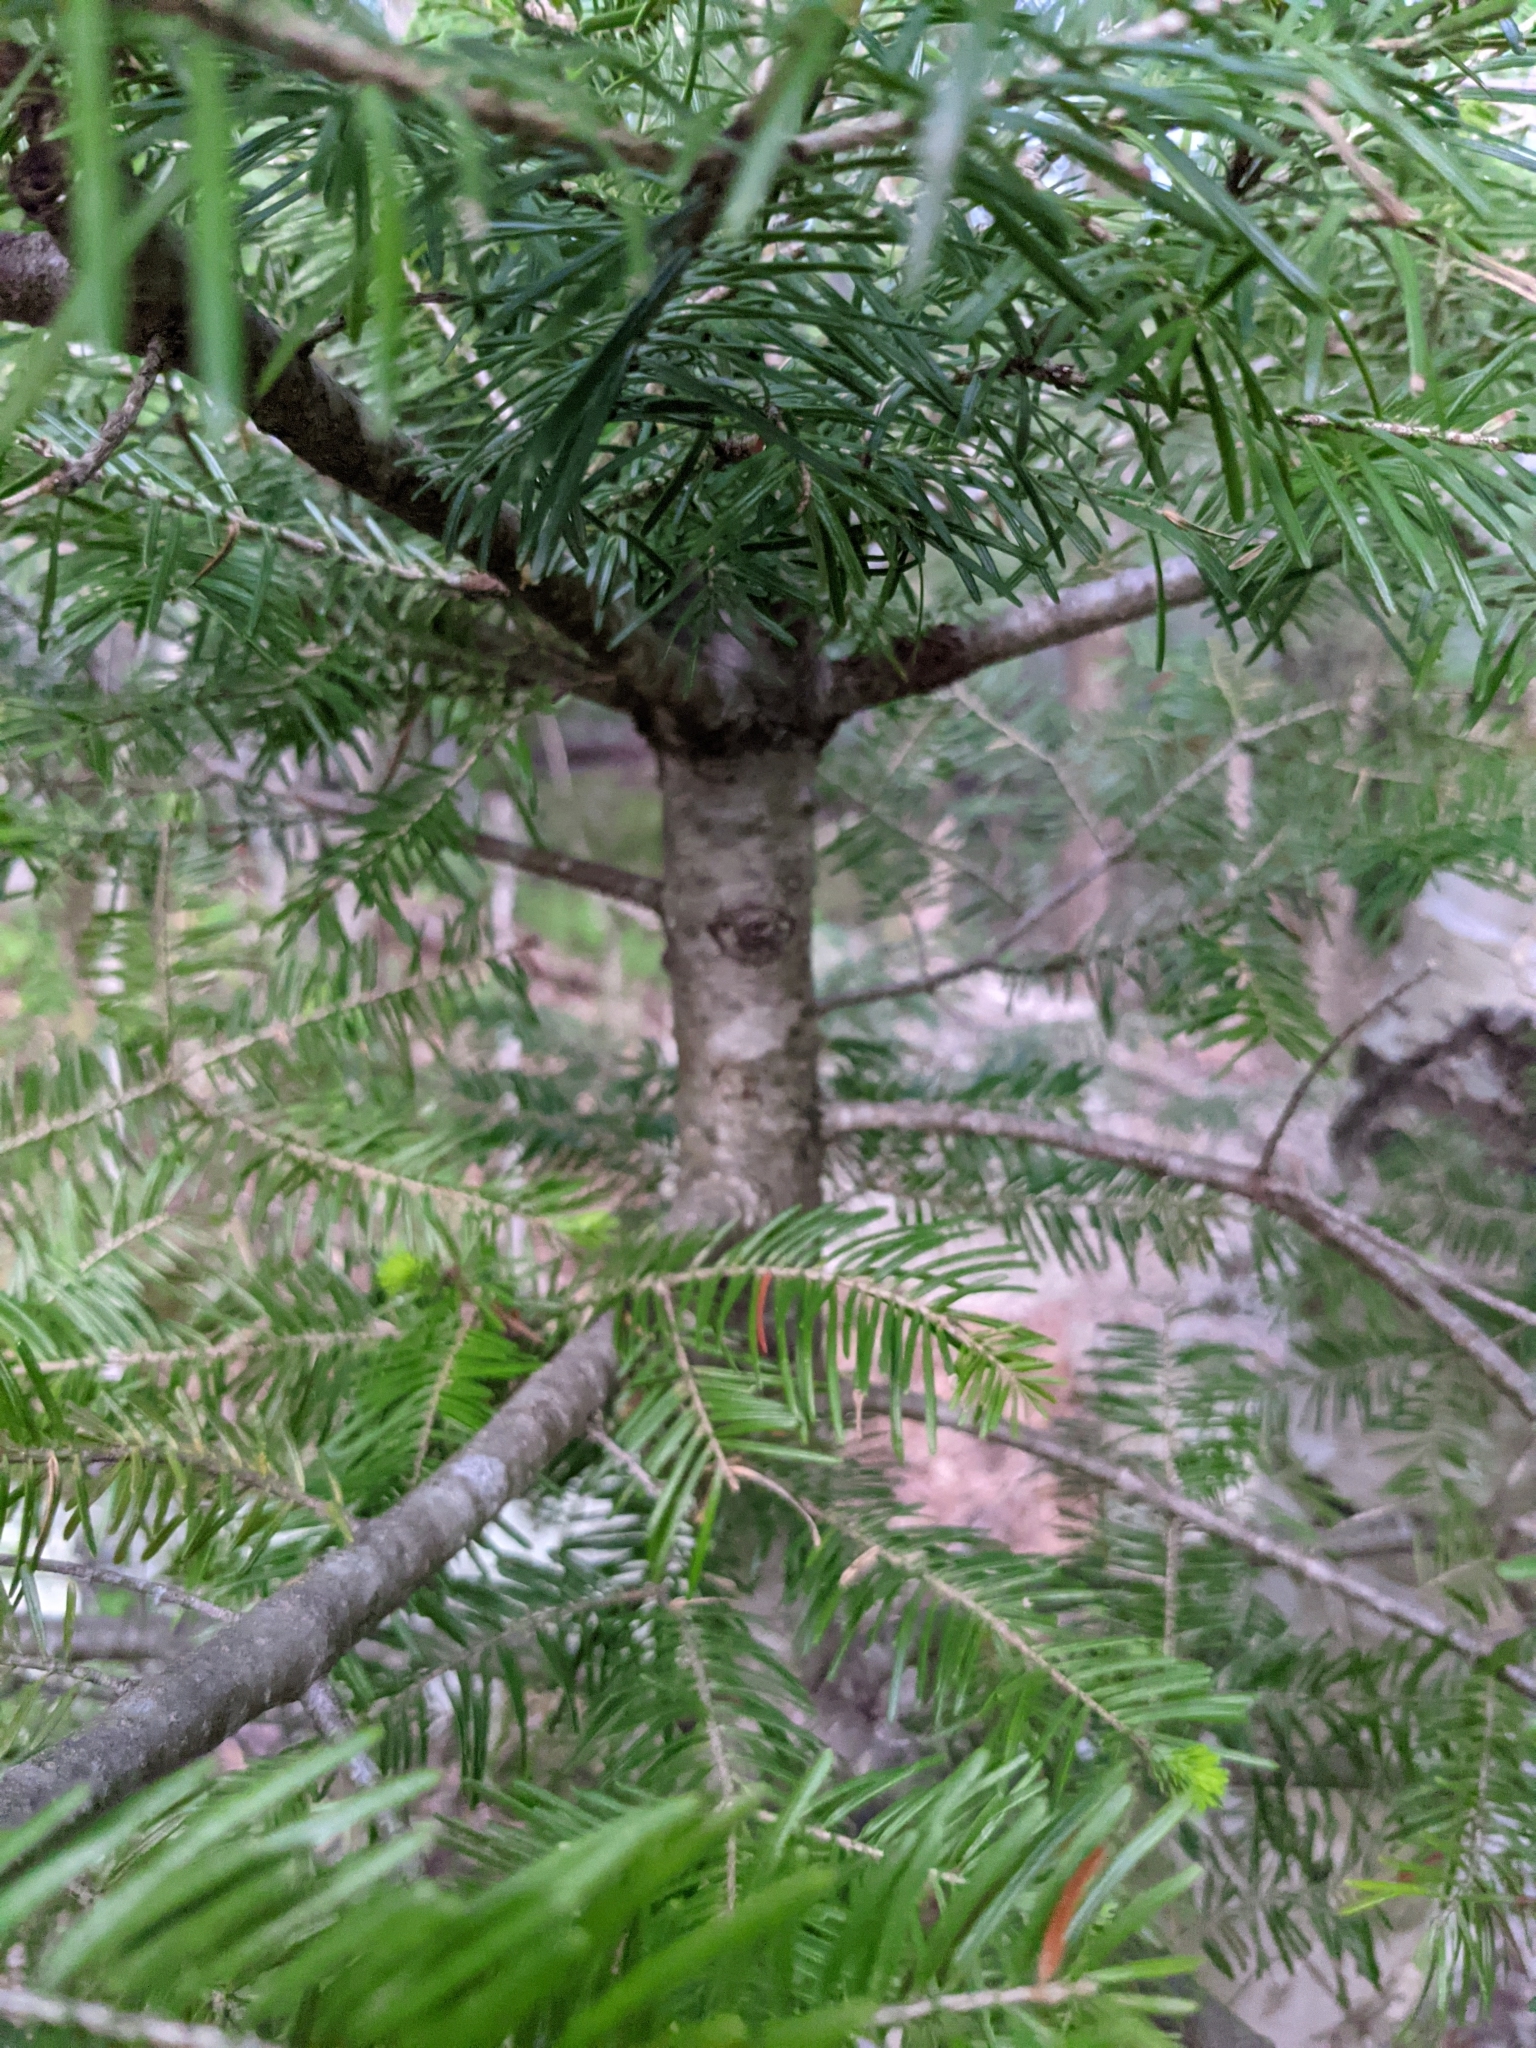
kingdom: Plantae
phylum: Tracheophyta
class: Pinopsida
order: Pinales
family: Pinaceae
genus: Abies
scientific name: Abies balsamea
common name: Balsam fir
